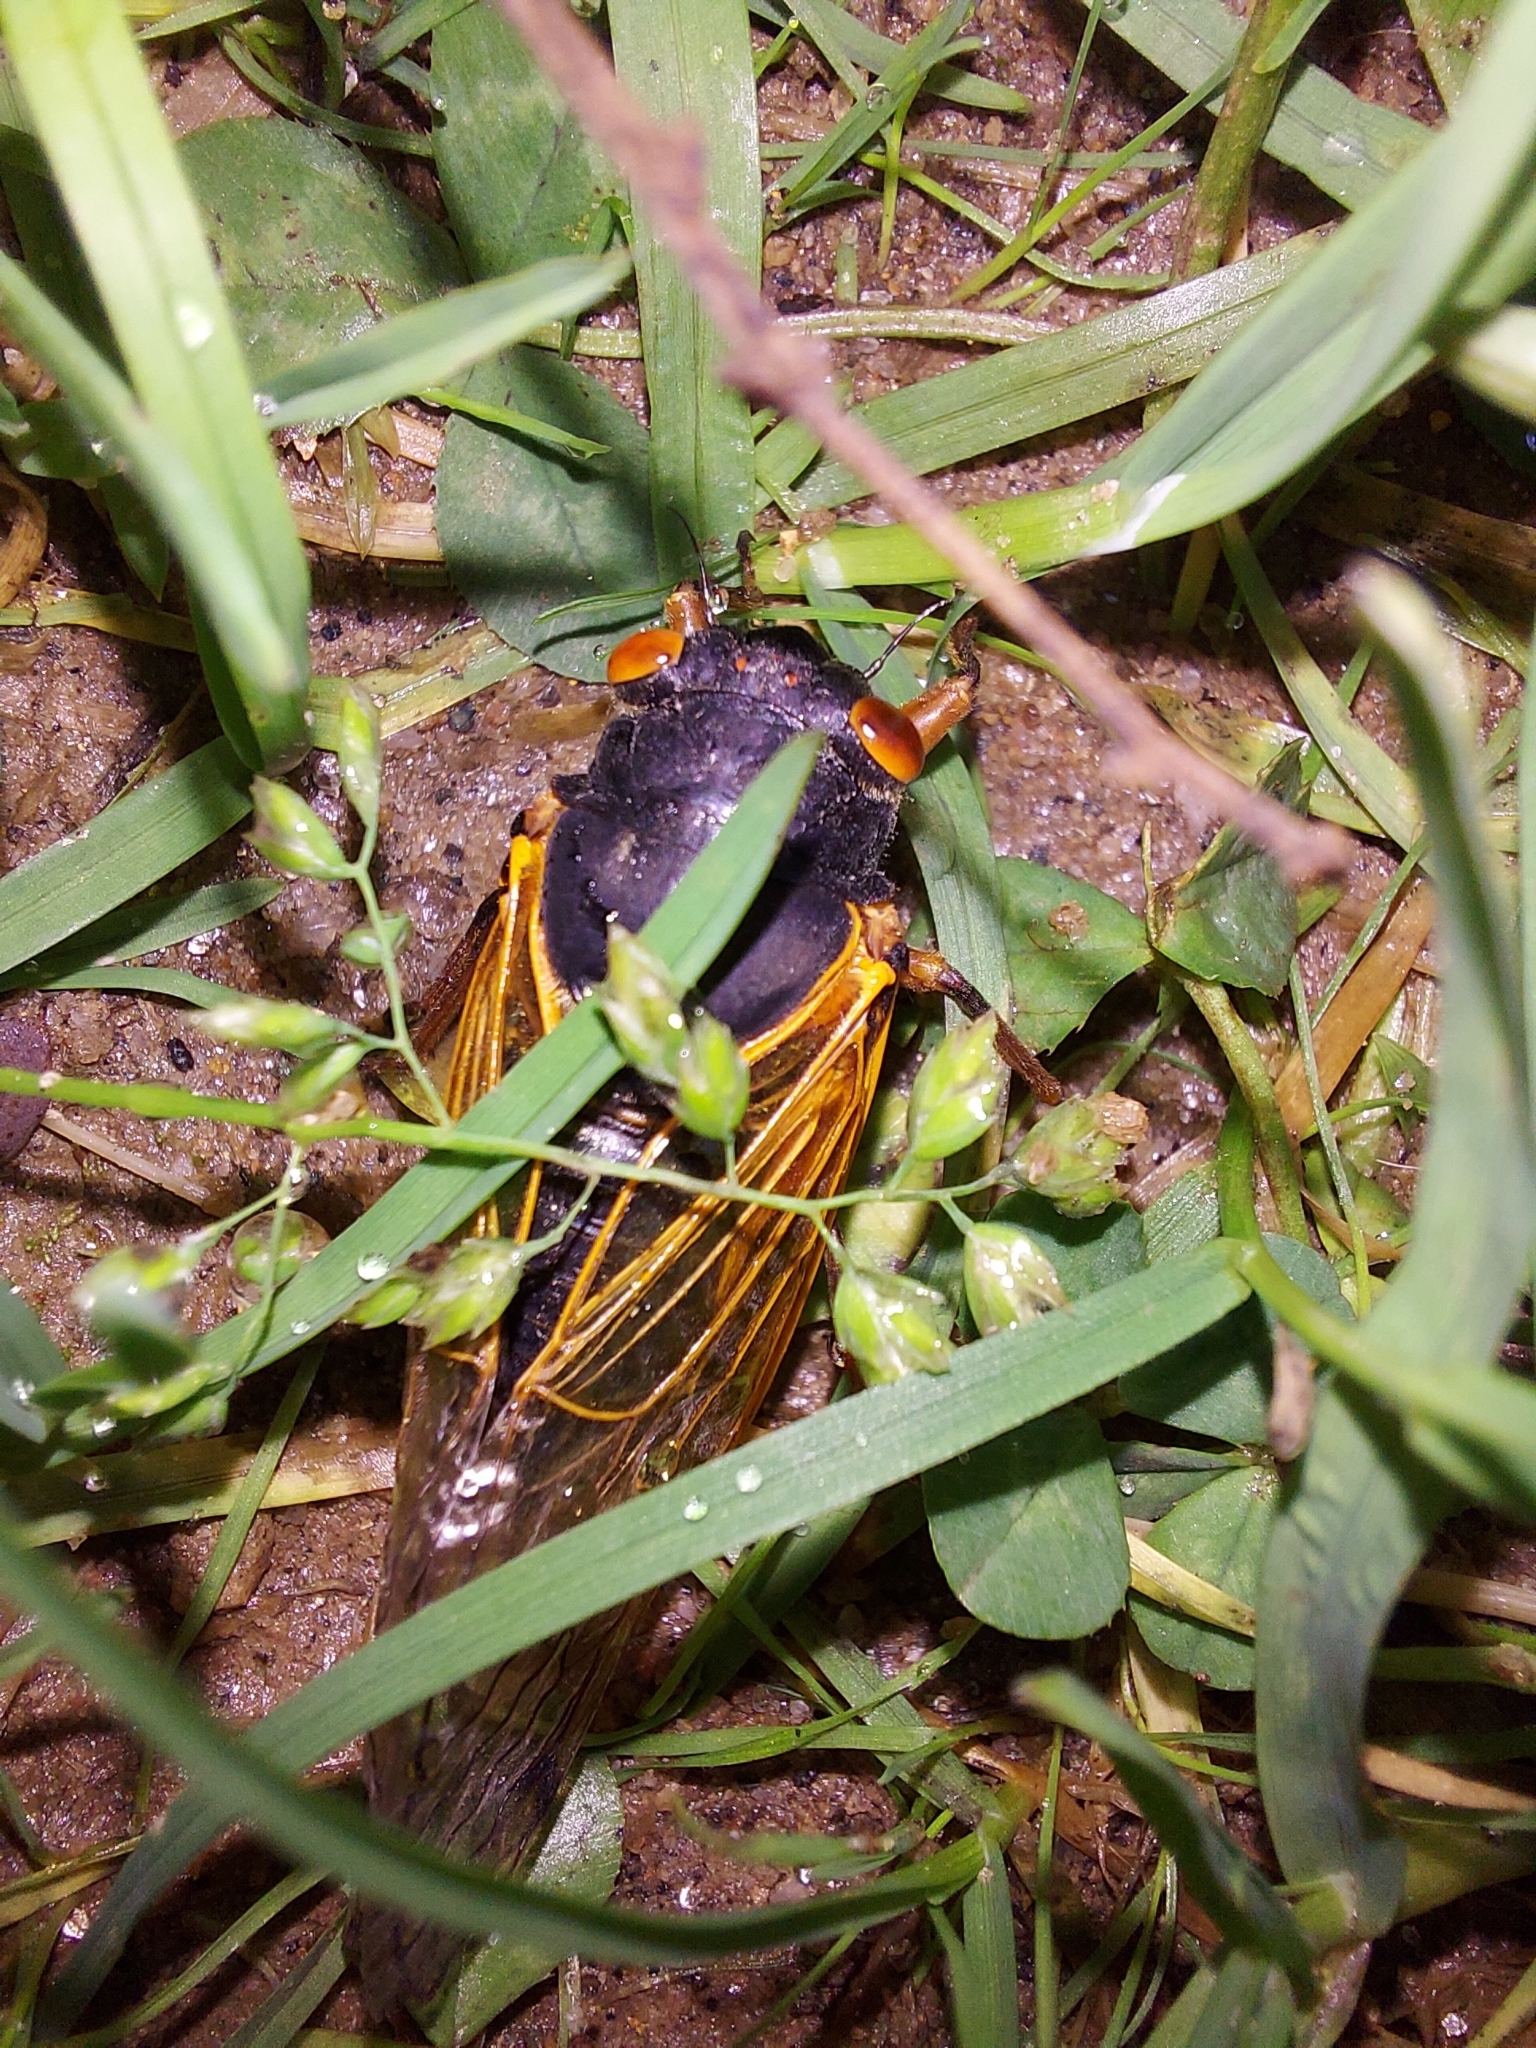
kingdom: Animalia
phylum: Arthropoda
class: Insecta
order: Hemiptera
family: Cicadidae
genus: Magicicada
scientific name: Magicicada septendecula
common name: Decula periodical cicada
